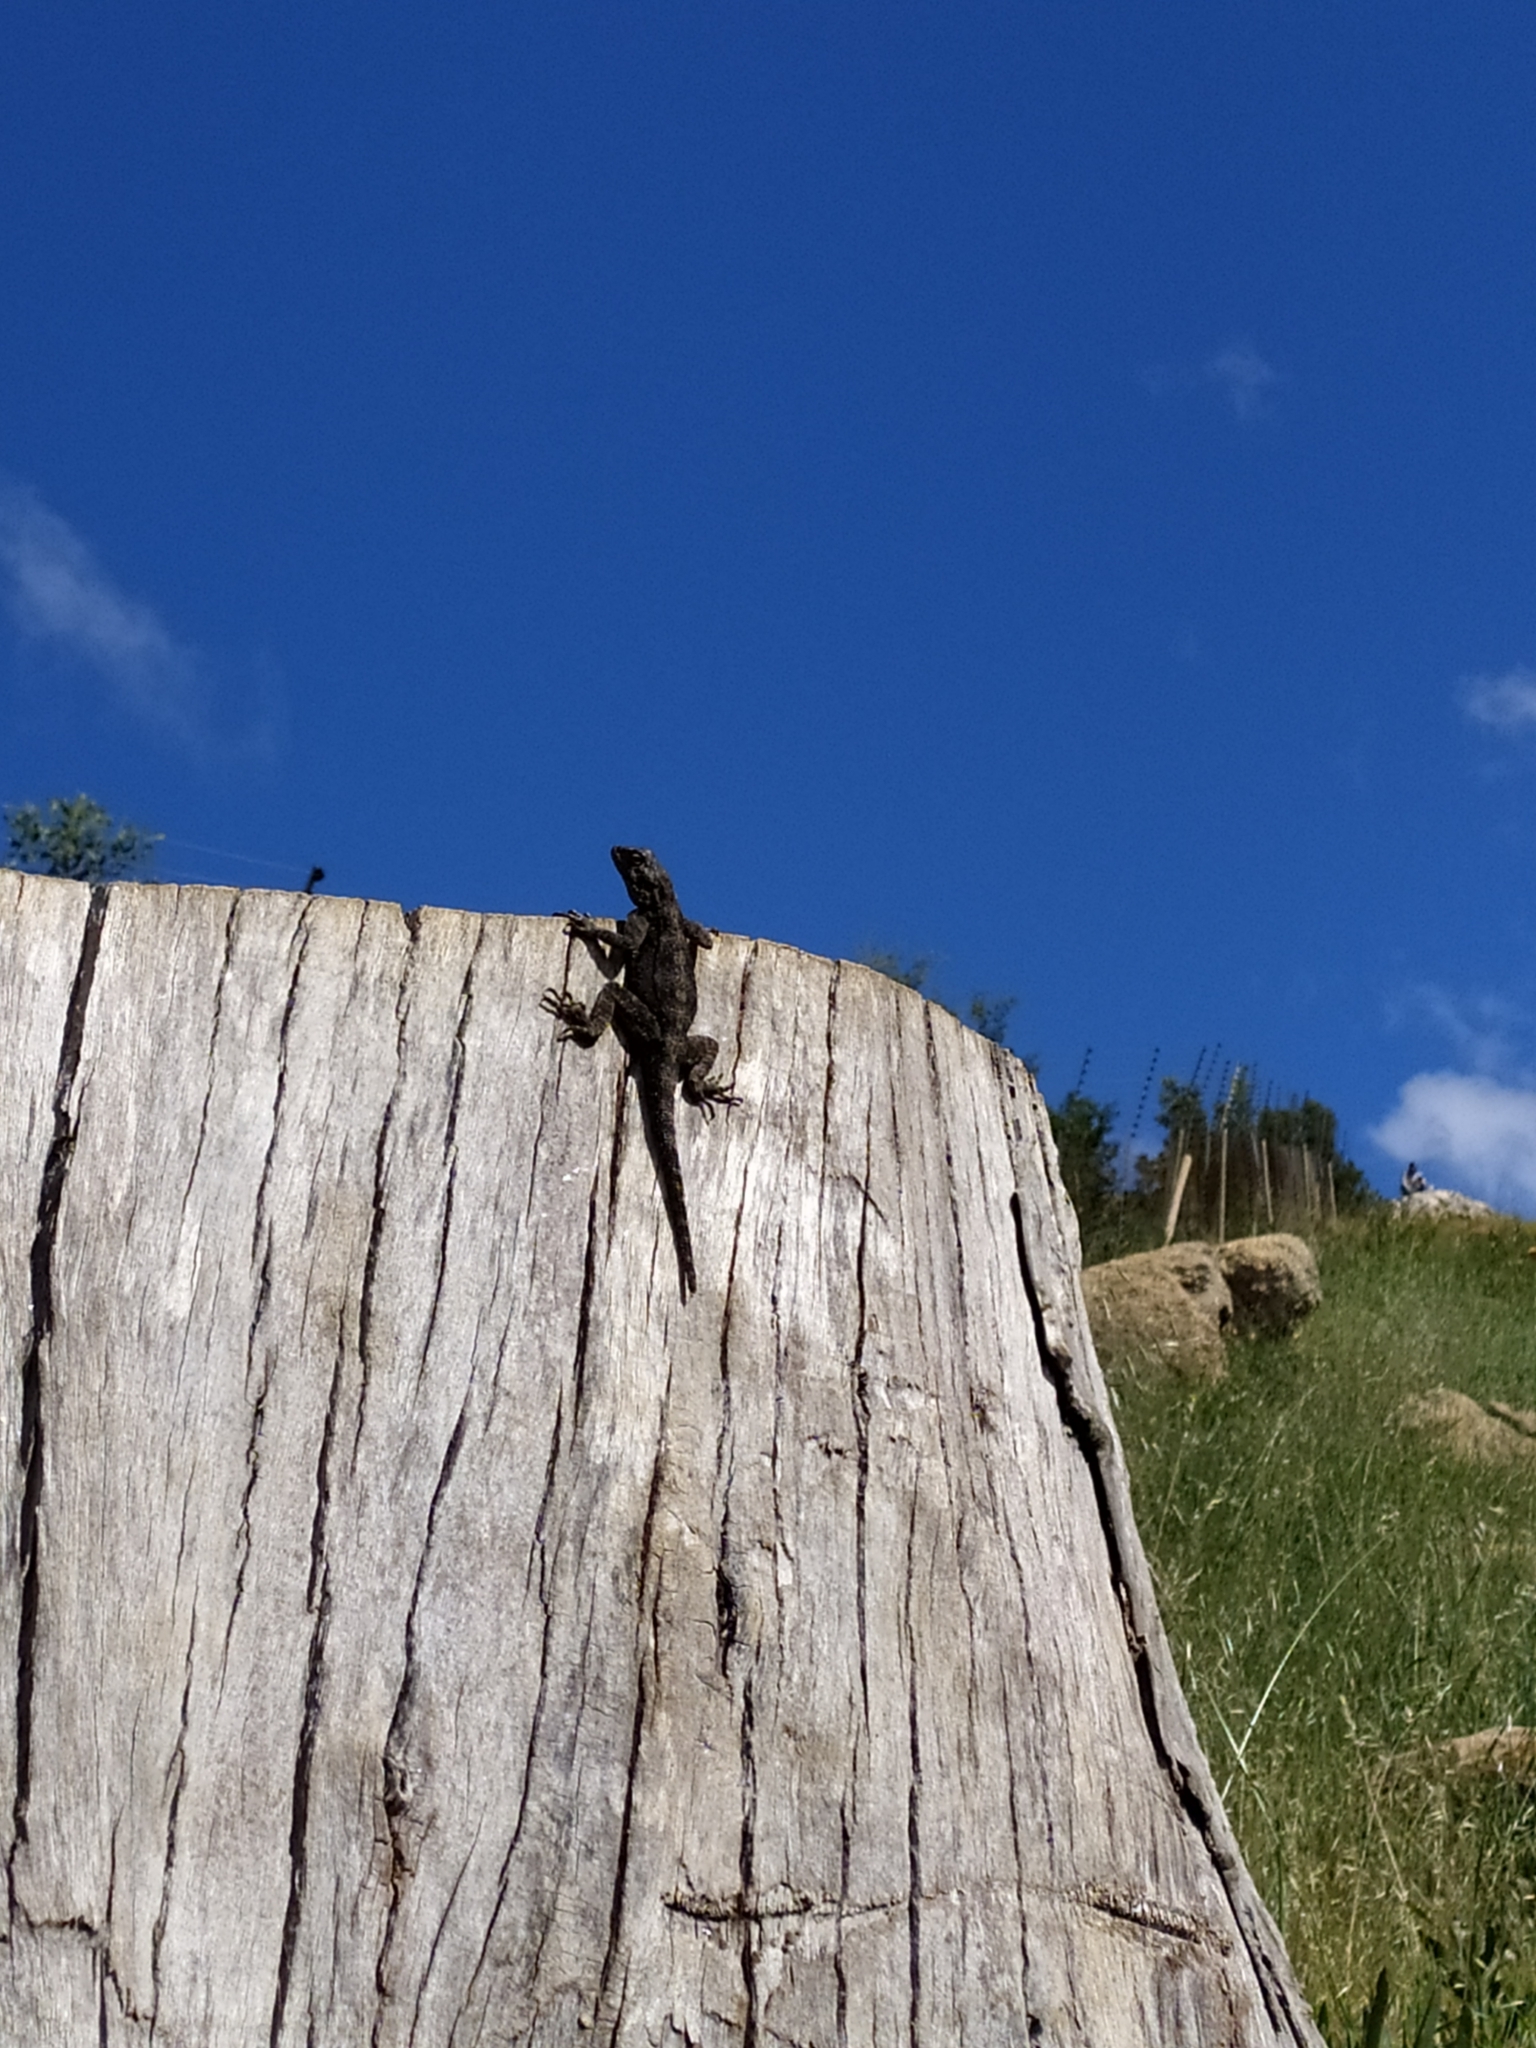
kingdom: Animalia
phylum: Chordata
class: Squamata
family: Agamidae
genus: Agama
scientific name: Agama atra
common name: Southern african rock agama
